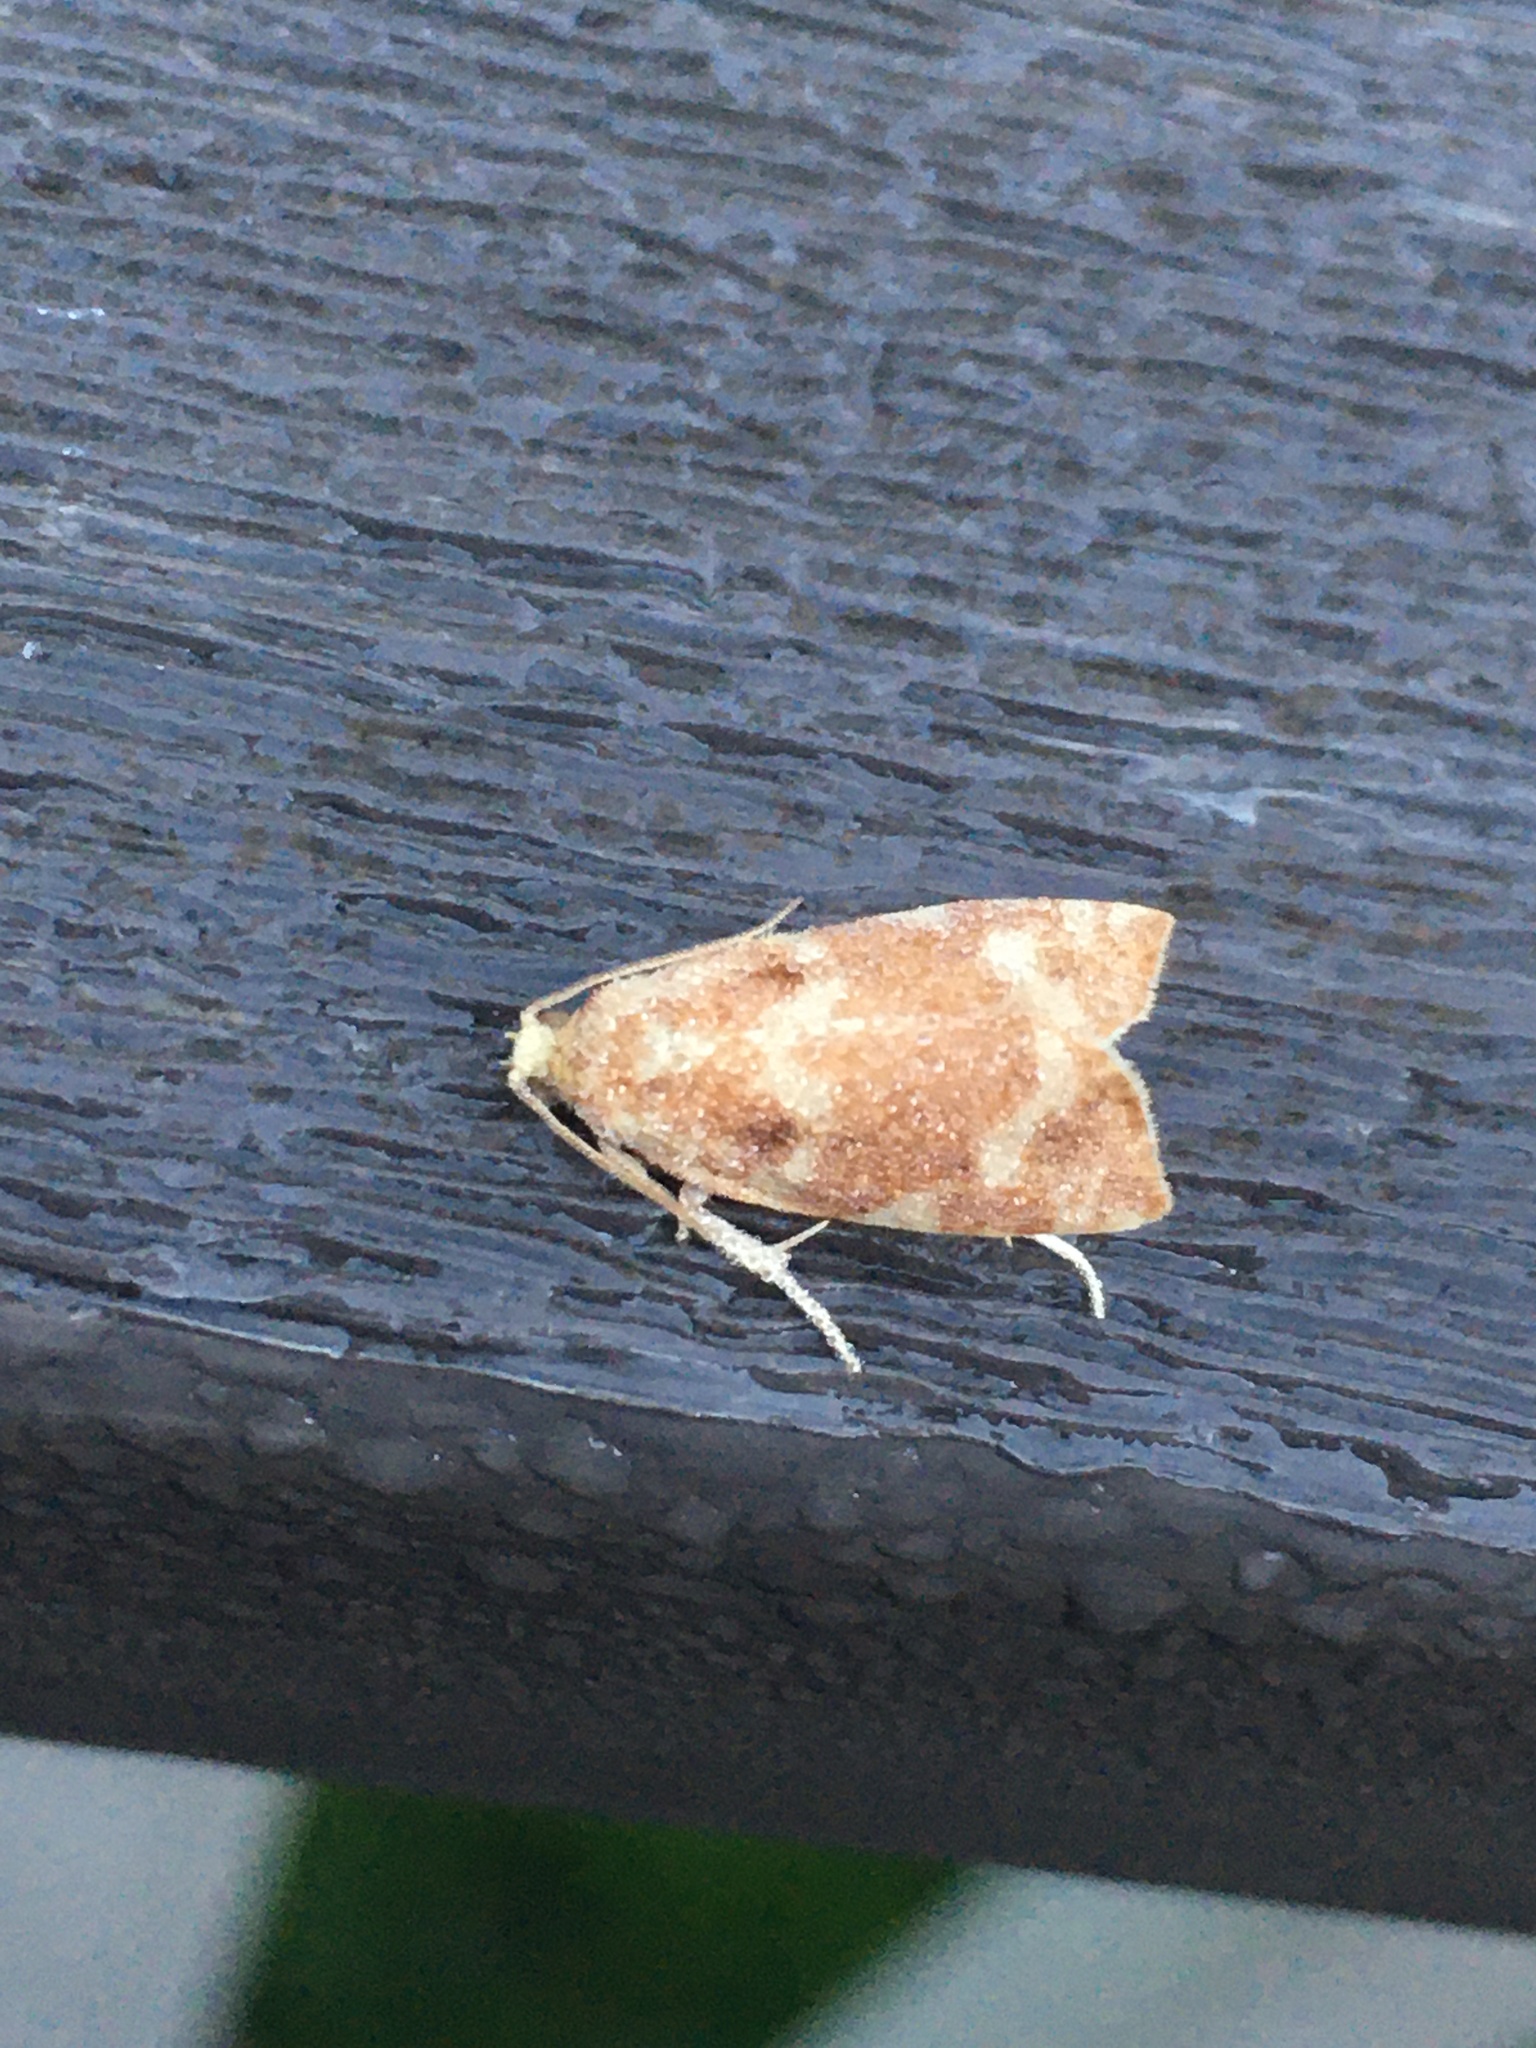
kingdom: Animalia
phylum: Arthropoda
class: Insecta
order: Lepidoptera
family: Tortricidae
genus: Archips
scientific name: Archips semiferanus
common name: Oak leafroller
